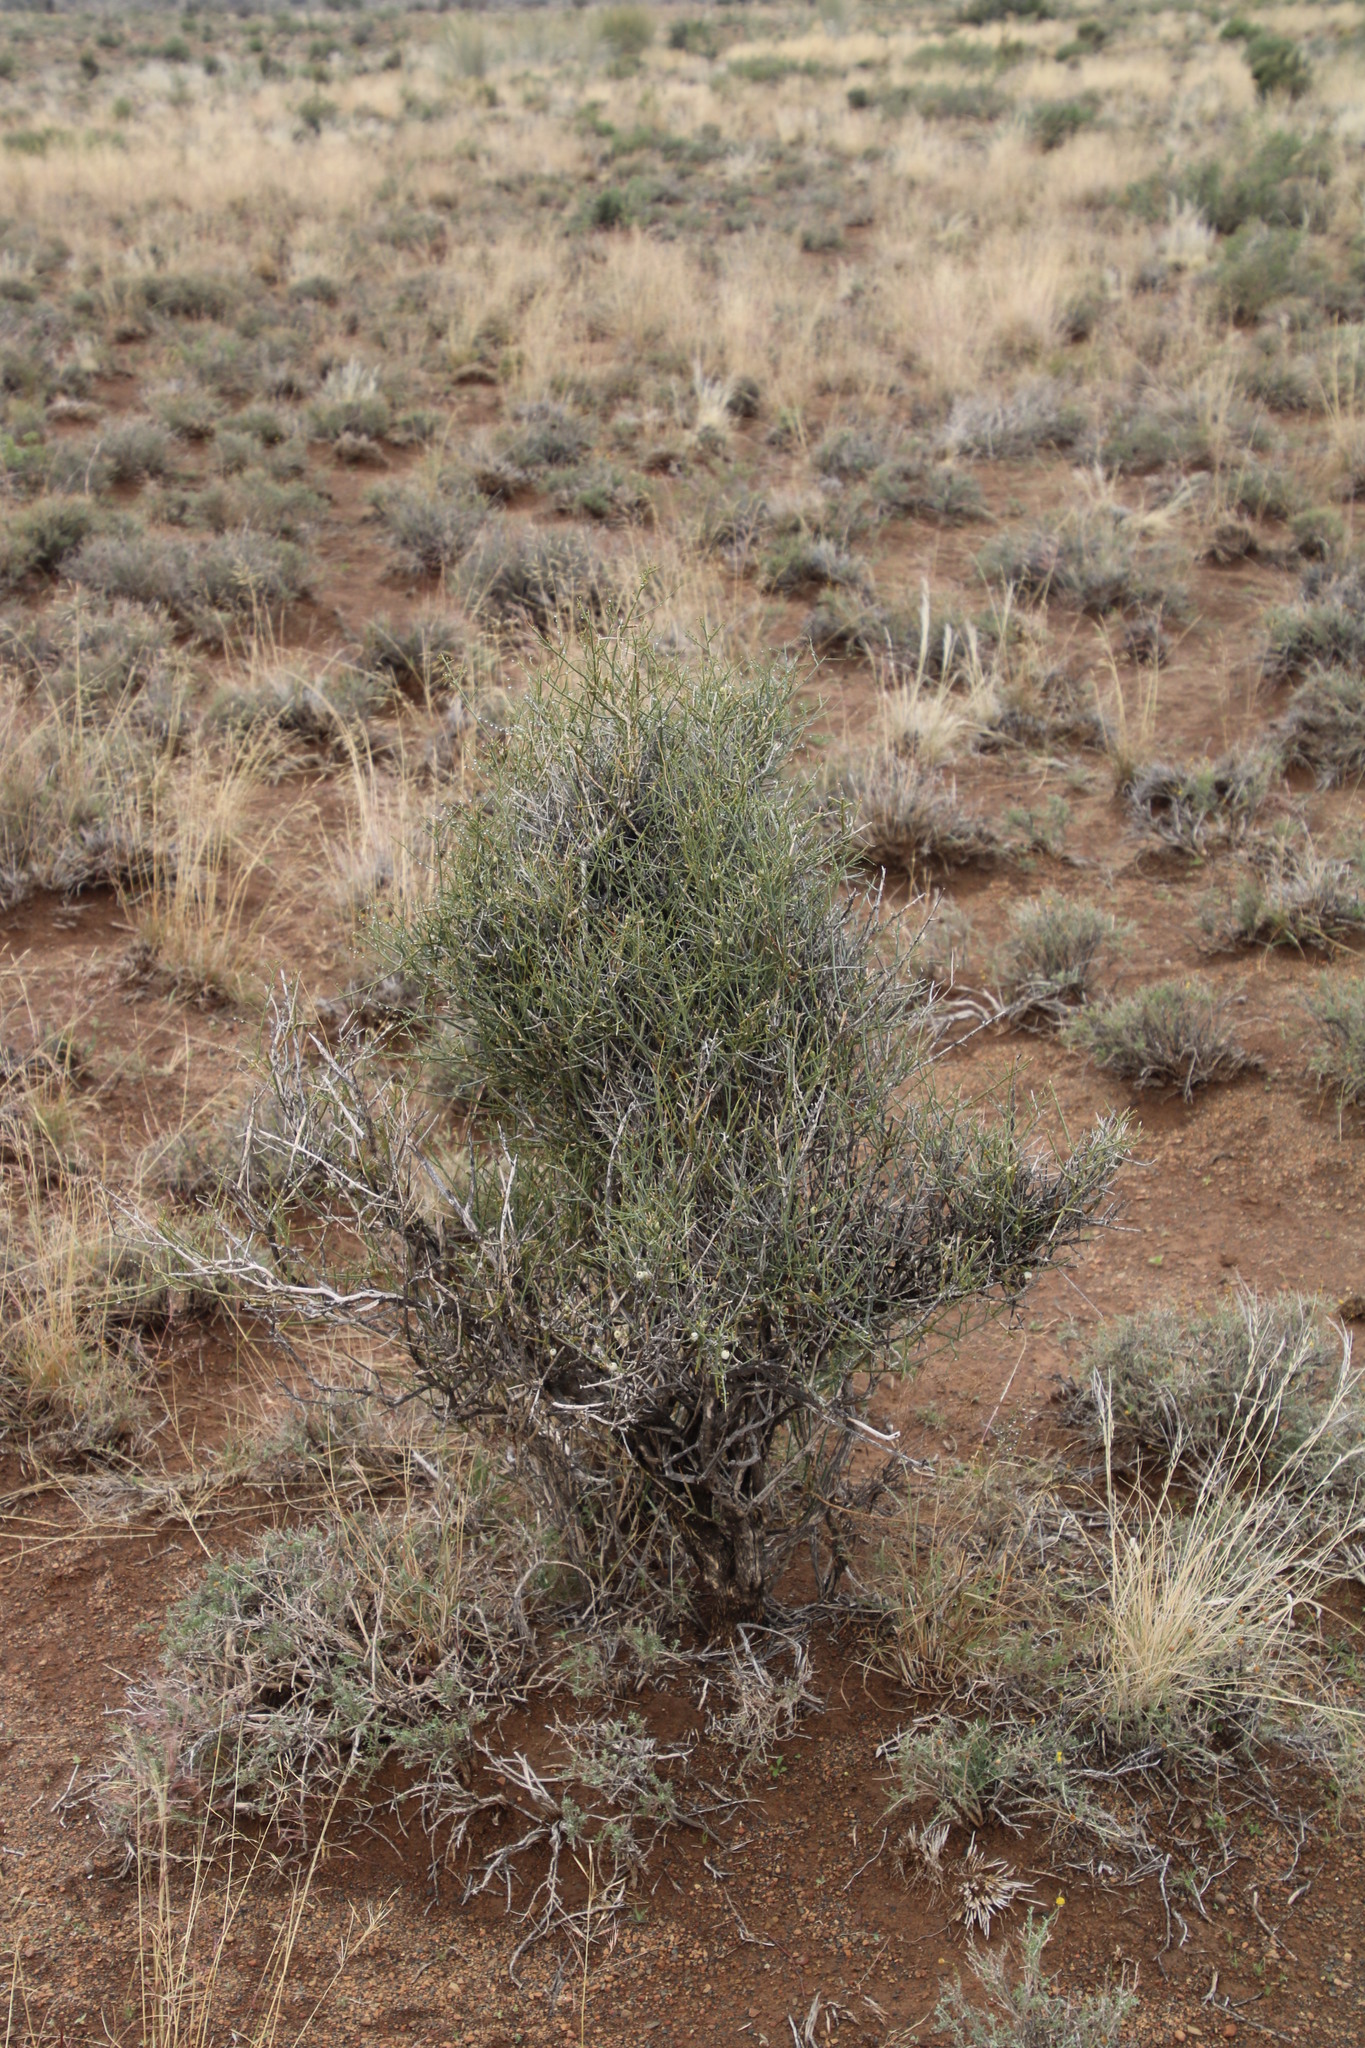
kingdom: Plantae
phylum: Tracheophyta
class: Magnoliopsida
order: Santalales
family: Thesiaceae
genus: Lacomucinaea
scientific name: Lacomucinaea lineata
